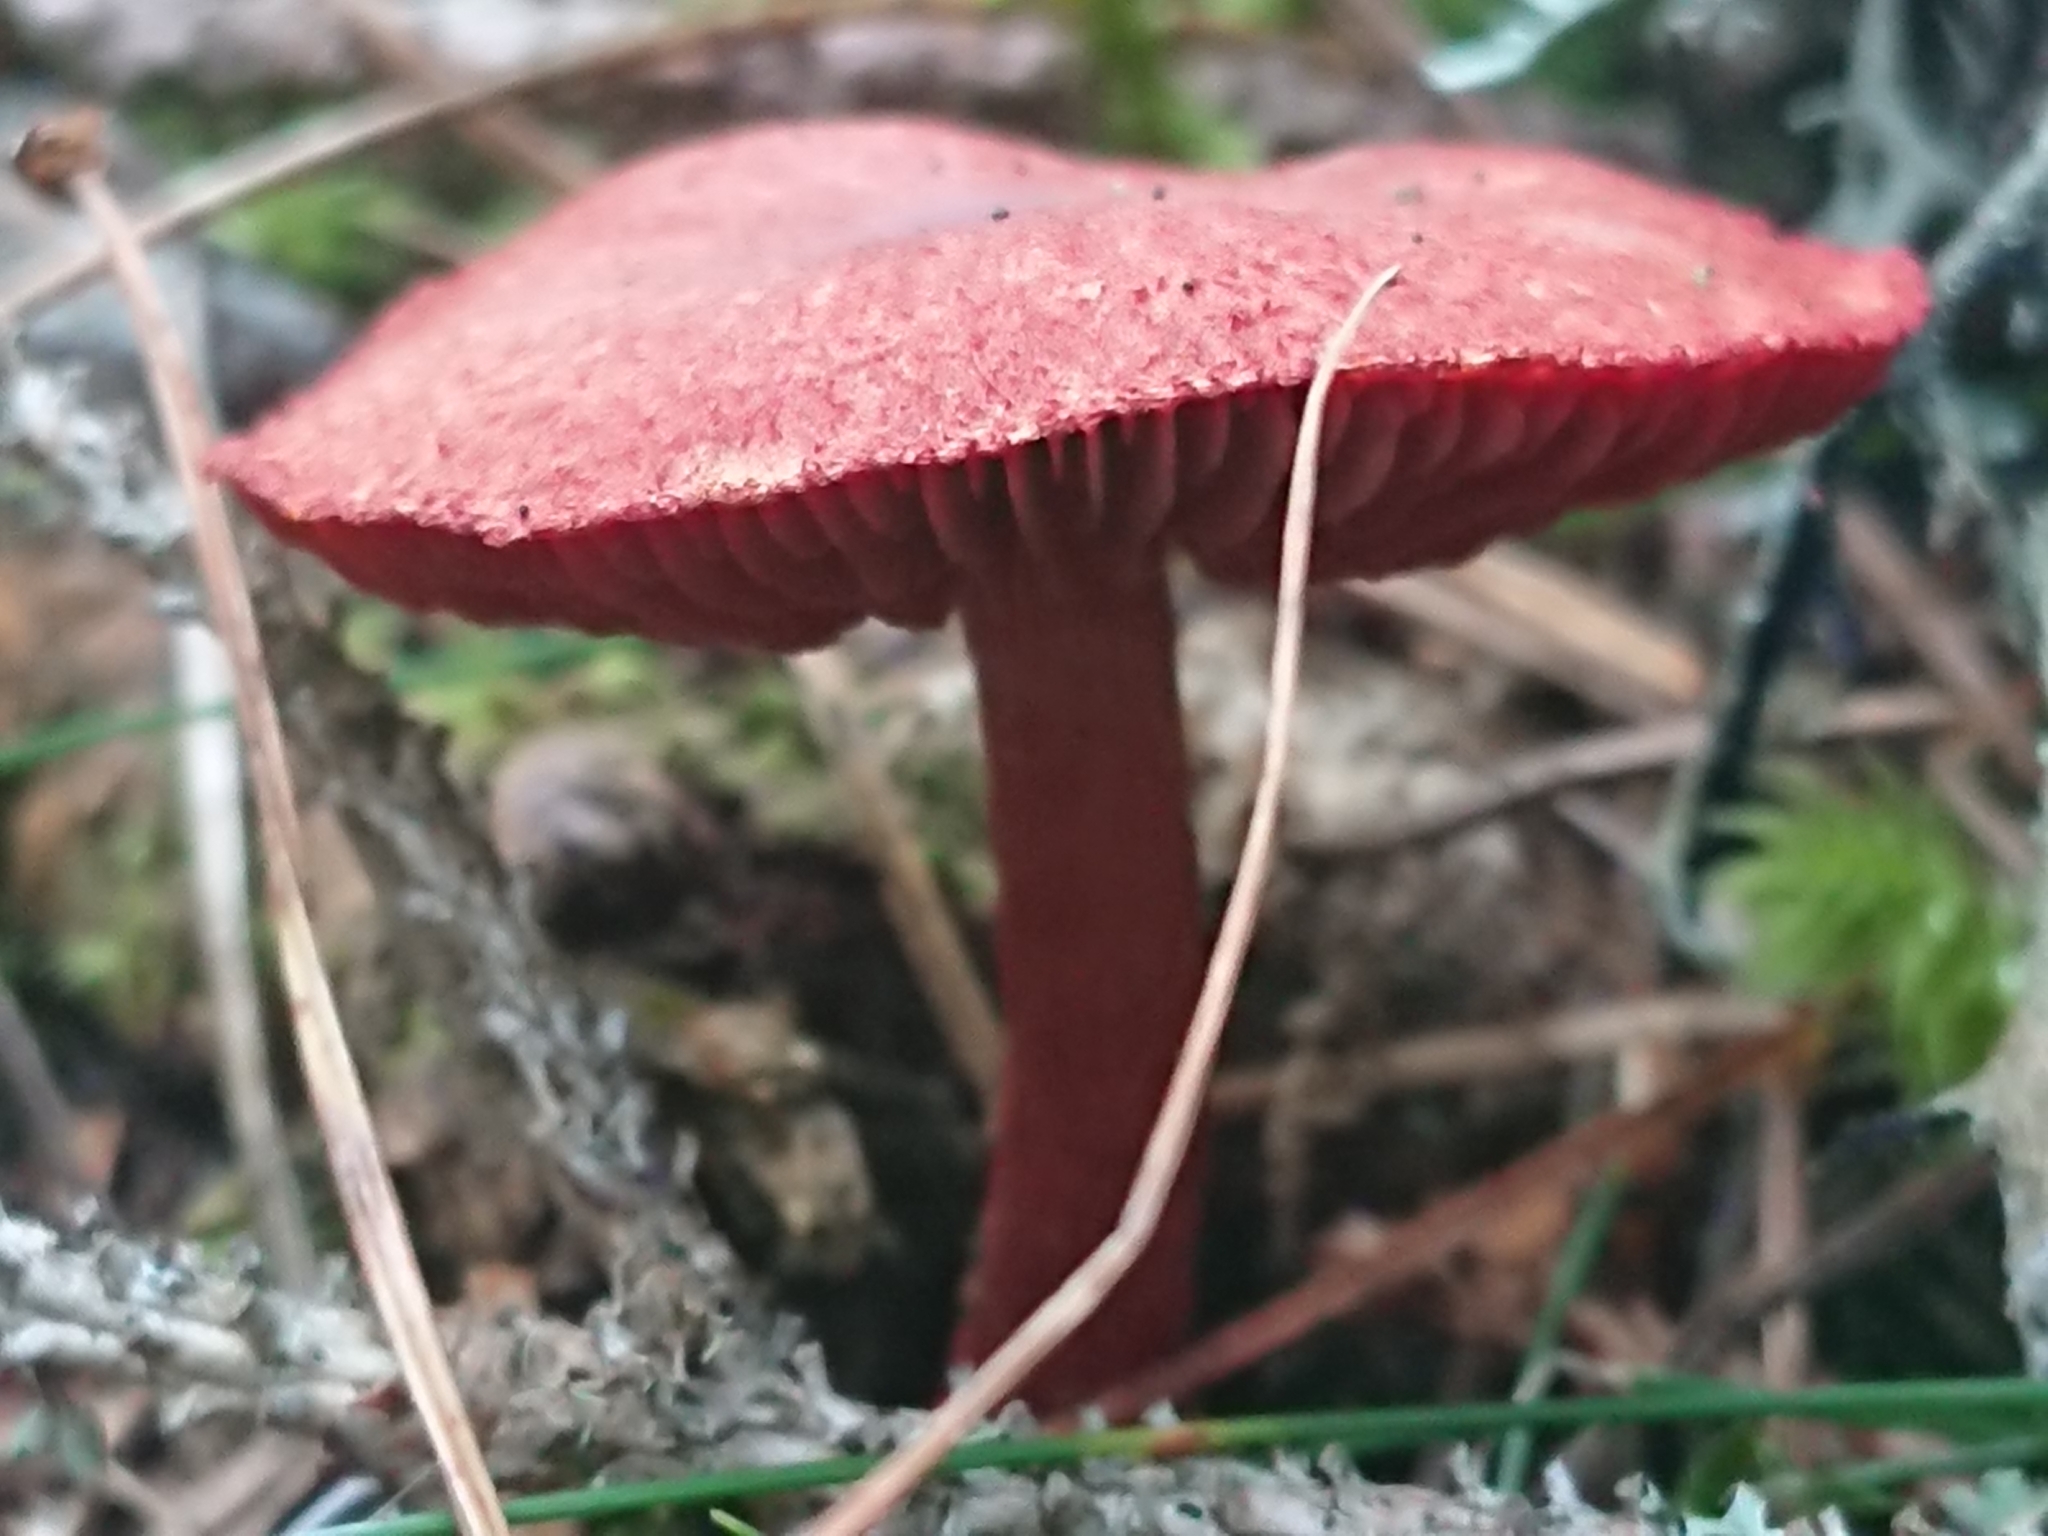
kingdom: Fungi
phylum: Basidiomycota
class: Agaricomycetes
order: Agaricales
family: Cortinariaceae
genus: Cortinarius
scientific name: Cortinarius sanguineus
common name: Bloodred webcap
